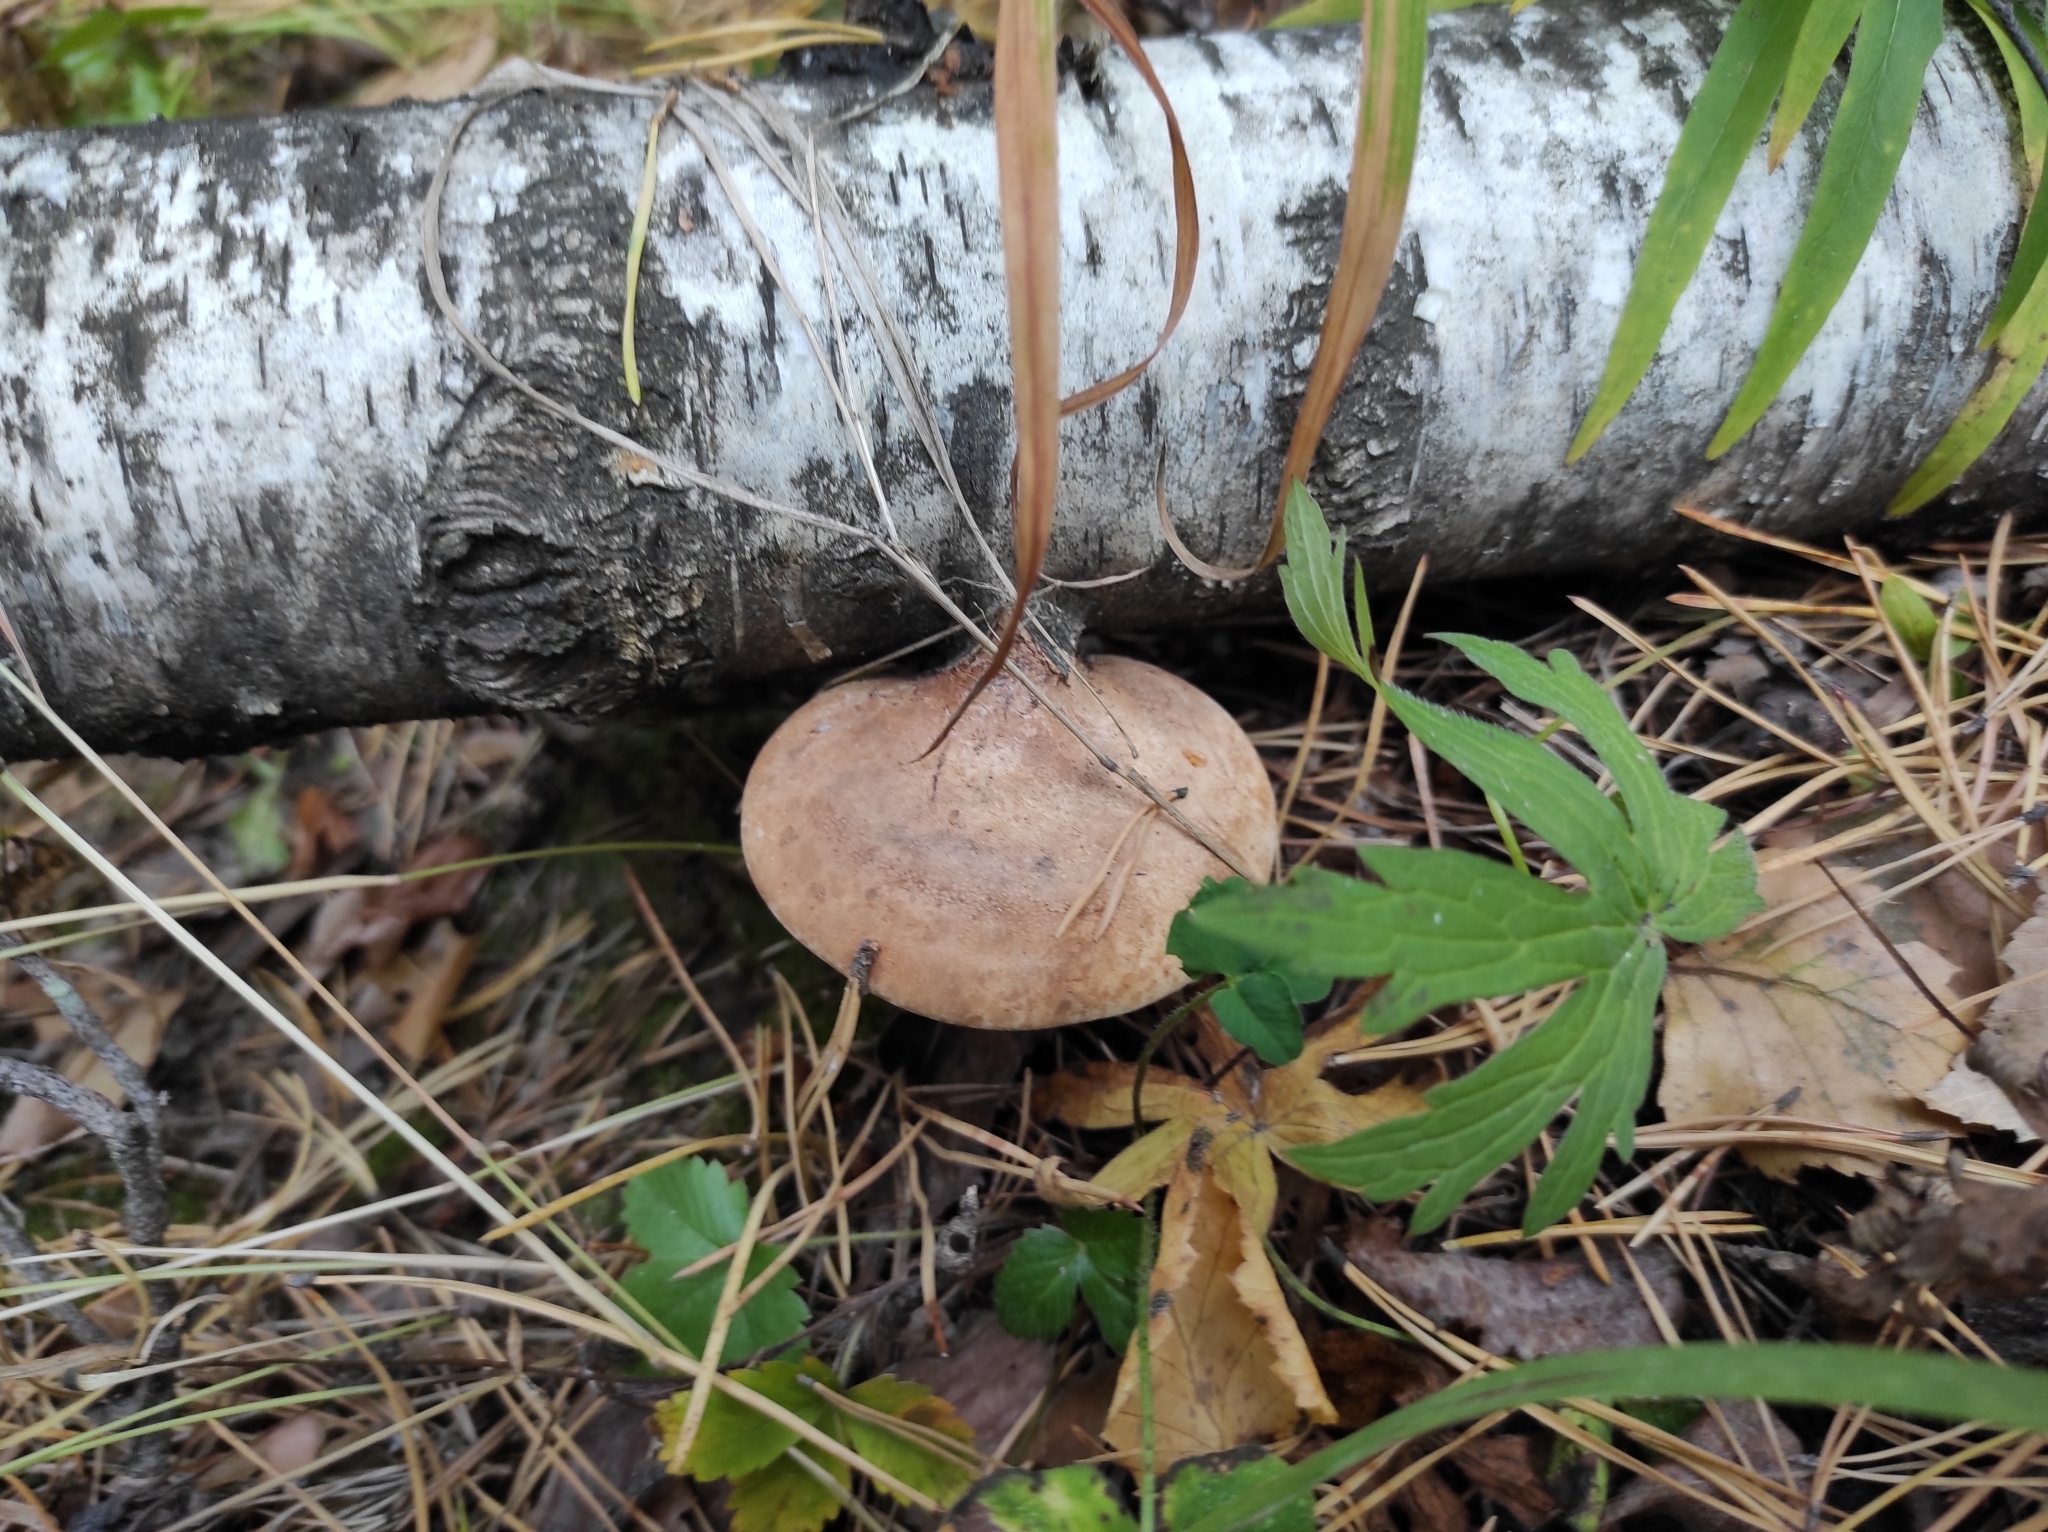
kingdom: Fungi
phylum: Basidiomycota
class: Agaricomycetes
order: Polyporales
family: Fomitopsidaceae
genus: Fomitopsis
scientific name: Fomitopsis betulina
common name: Birch polypore
